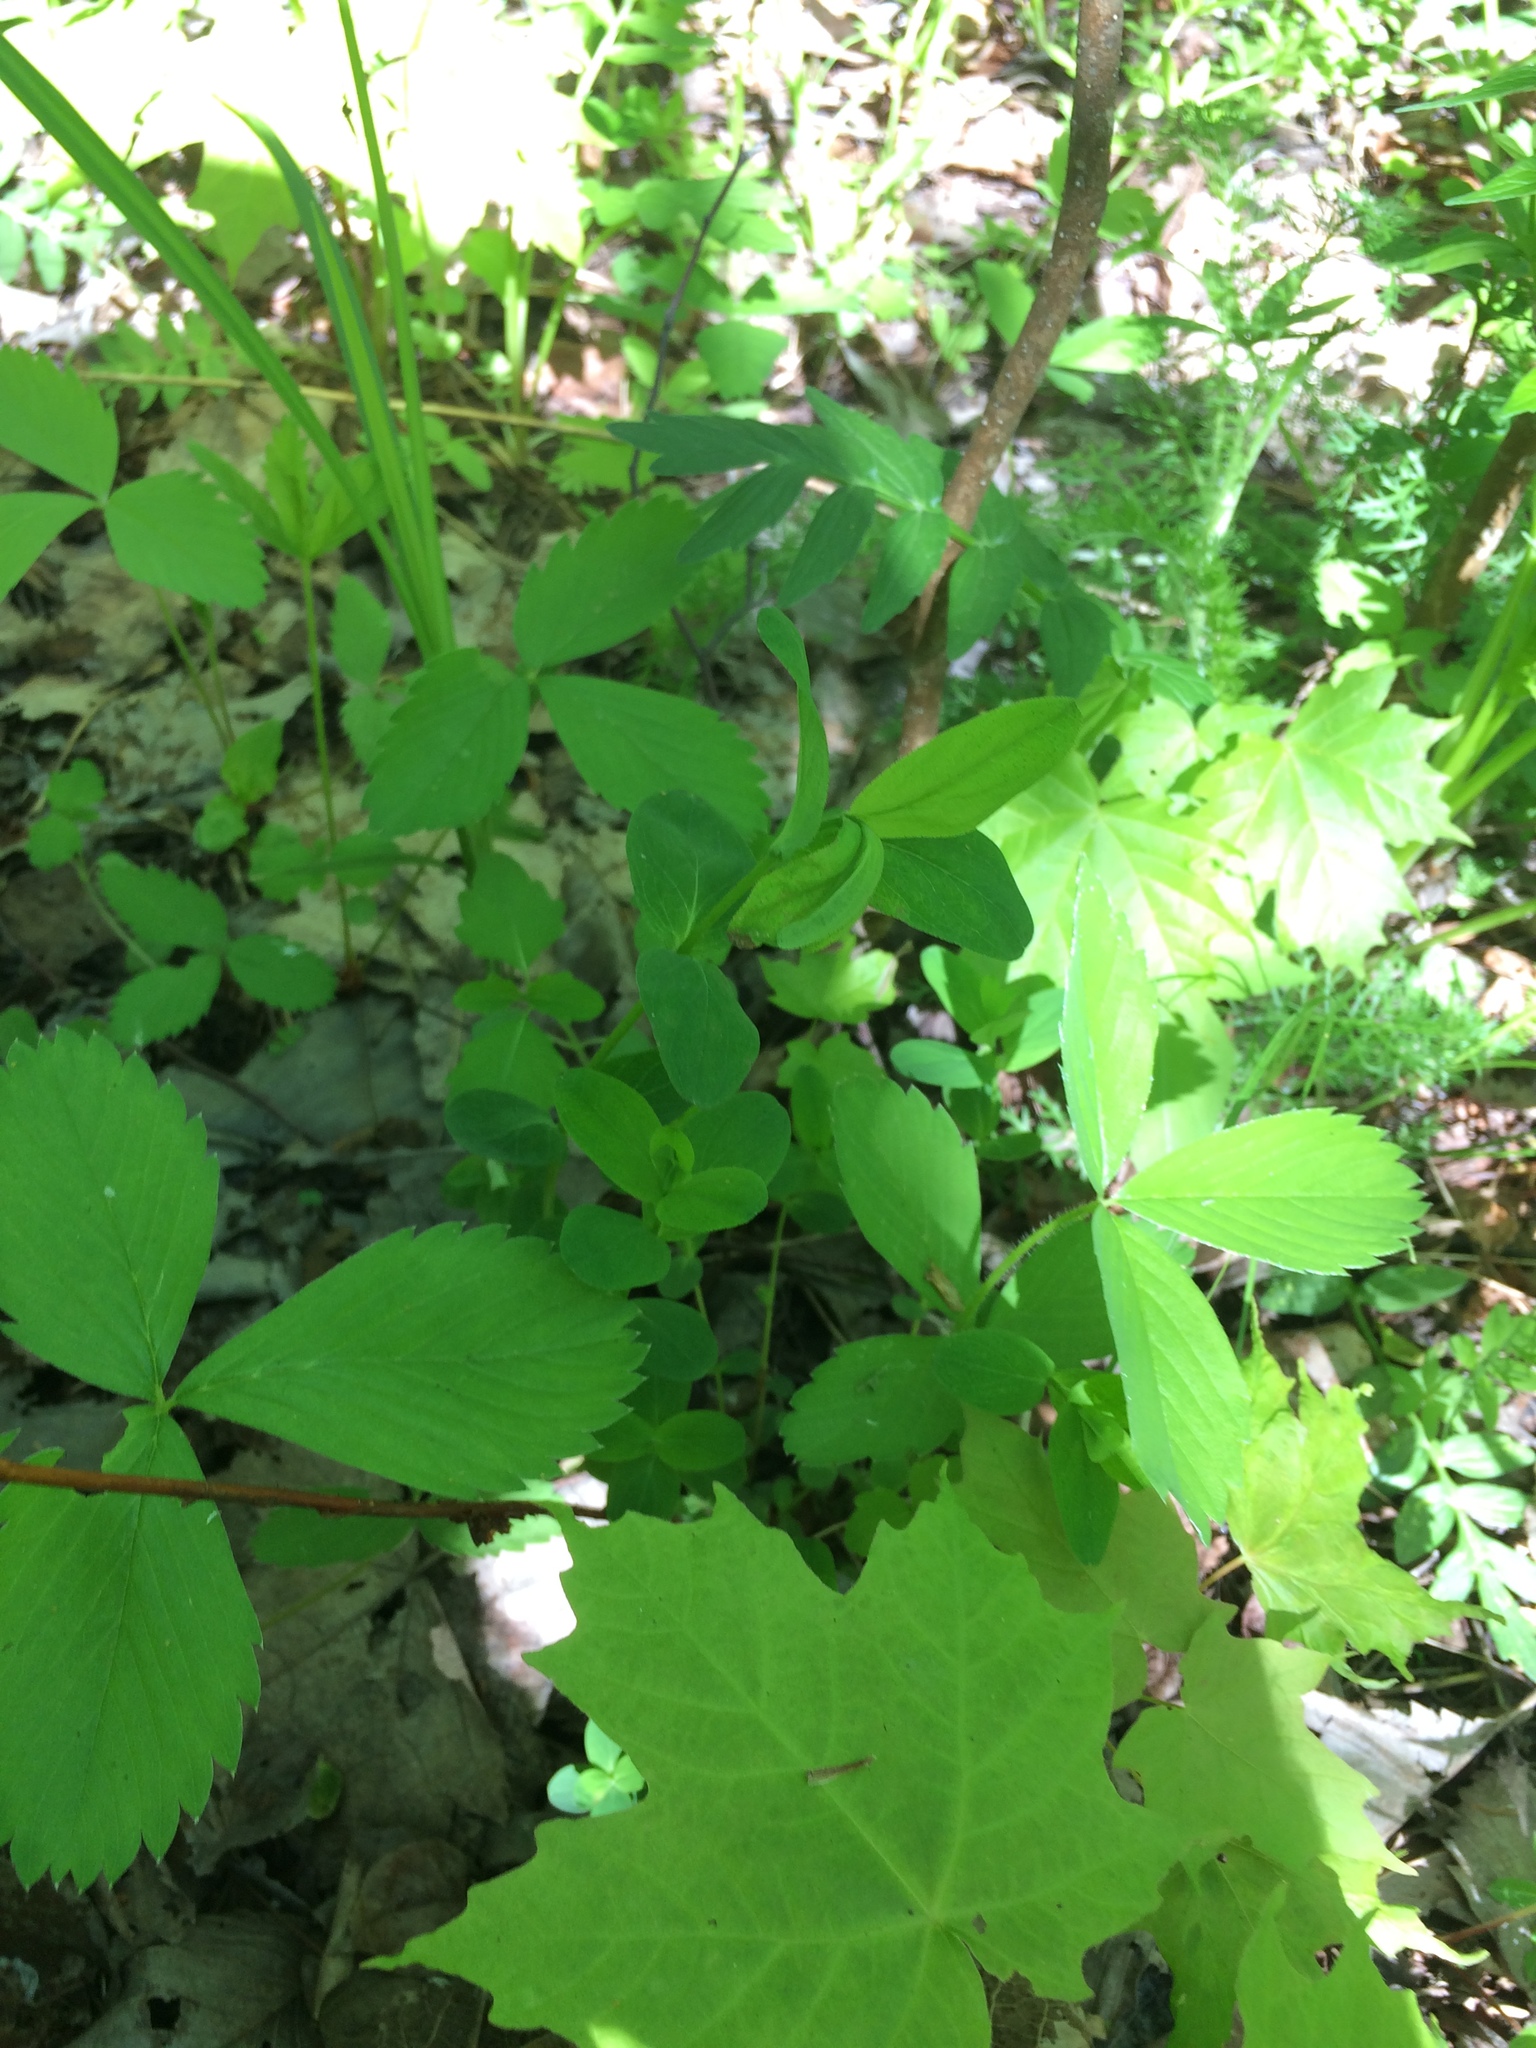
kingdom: Plantae
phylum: Tracheophyta
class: Magnoliopsida
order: Malpighiales
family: Hypericaceae
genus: Hypericum
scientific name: Hypericum punctatum
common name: Spotted st. john's-wort
